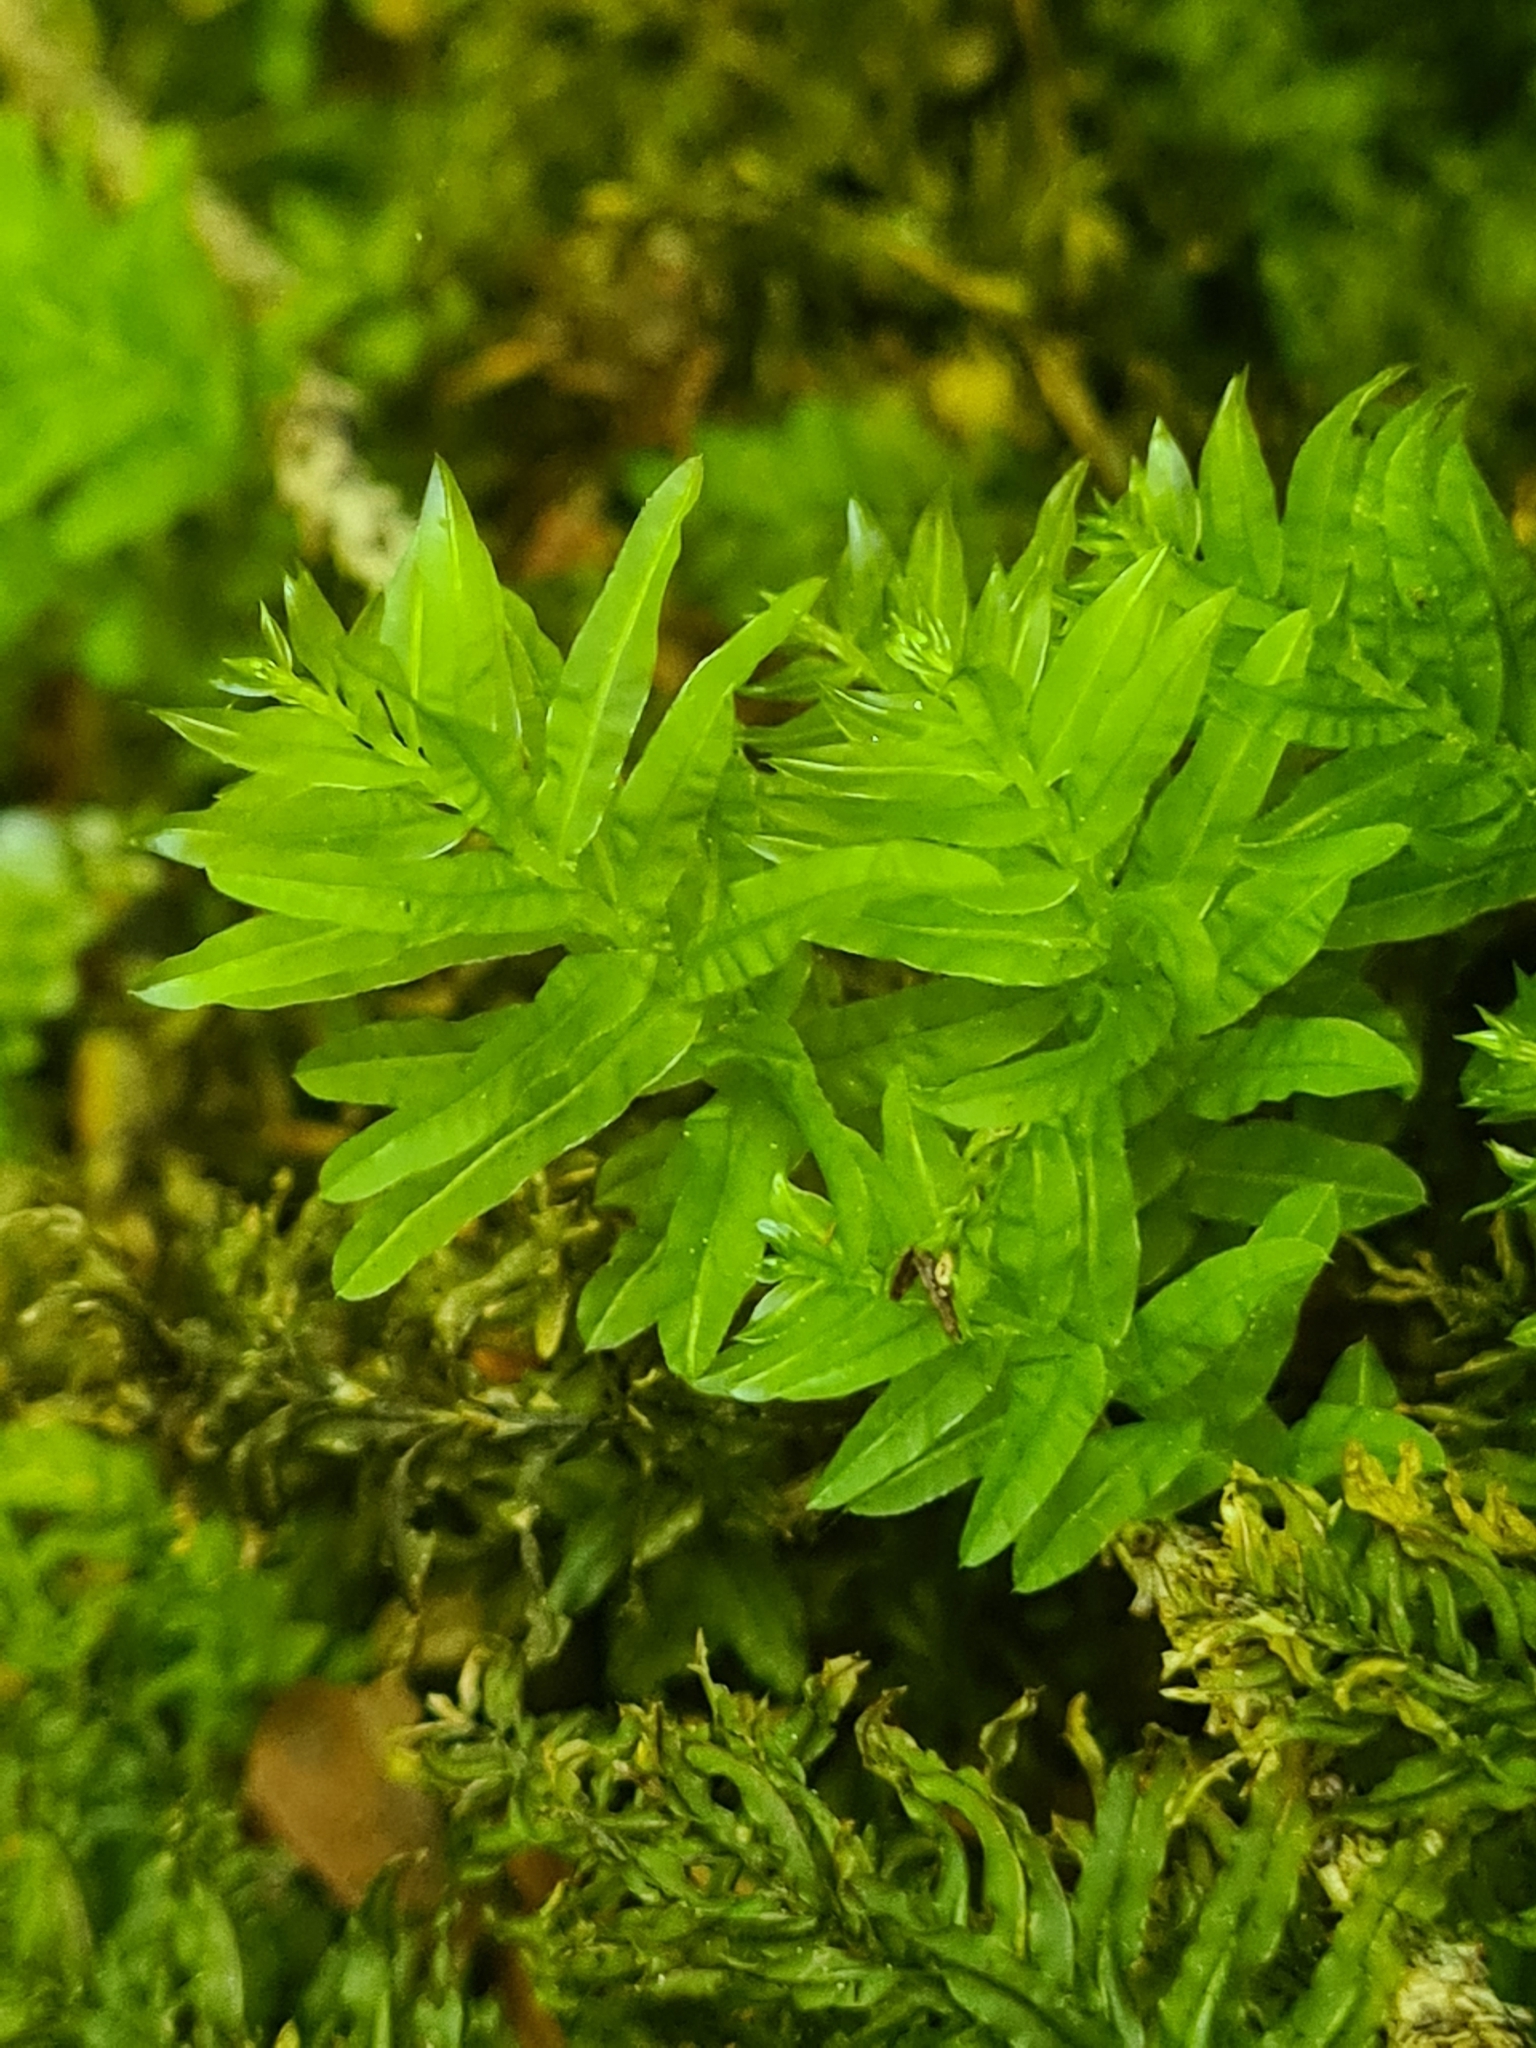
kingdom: Plantae
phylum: Bryophyta
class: Bryopsida
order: Bryales
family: Mniaceae
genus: Plagiomnium
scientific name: Plagiomnium undulatum
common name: Hart's-tongue thyme-moss
